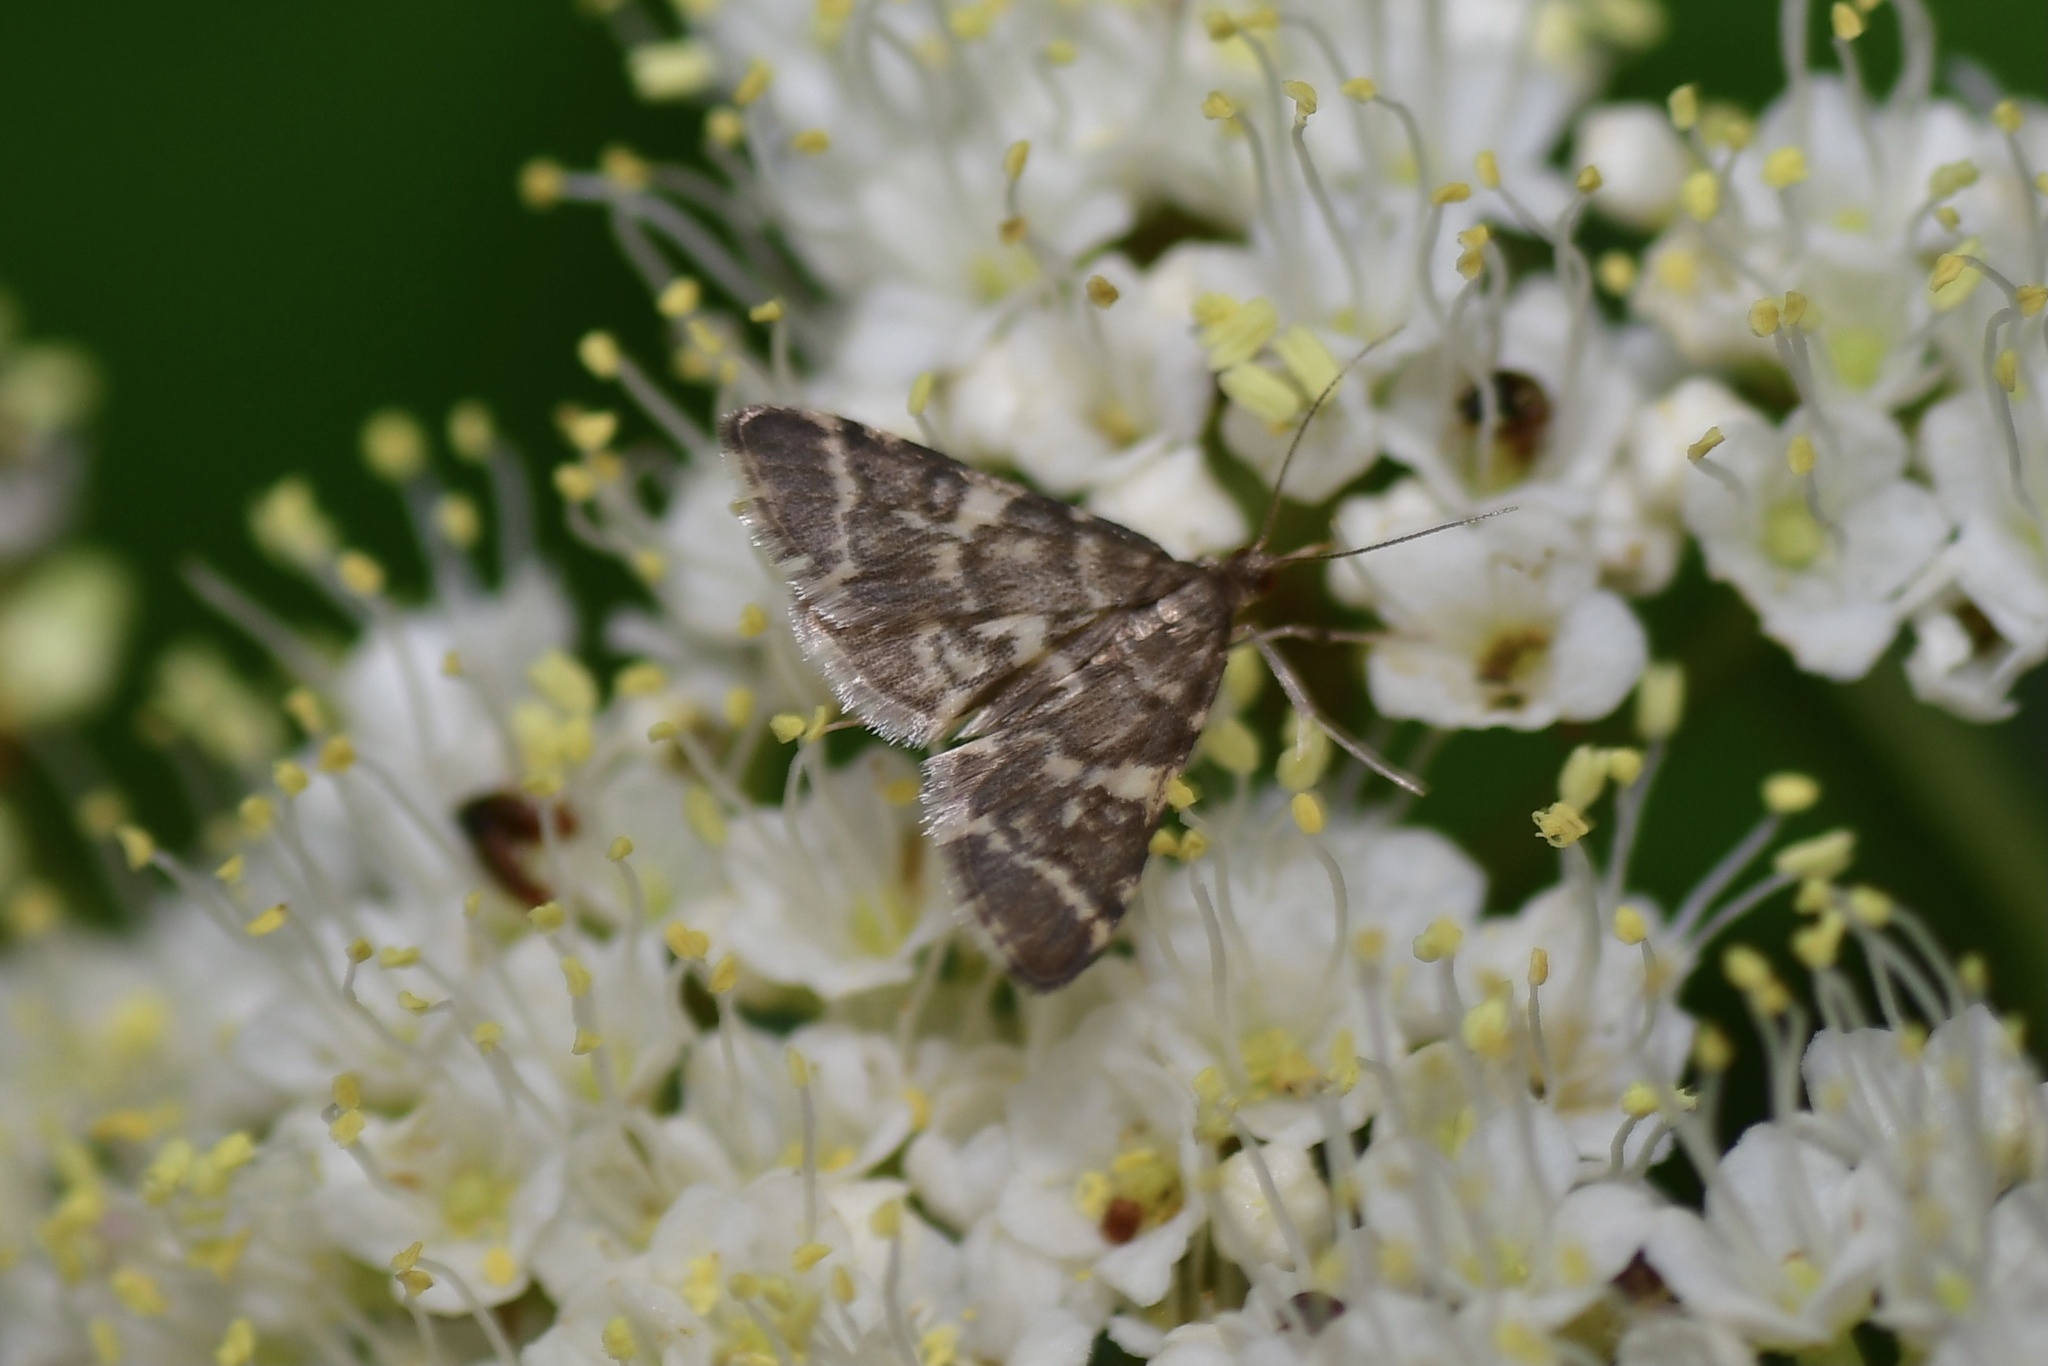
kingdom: Animalia
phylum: Arthropoda
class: Insecta
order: Lepidoptera
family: Crambidae
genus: Anageshna
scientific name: Anageshna primordialis
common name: Yellow-spotted webworm moth
